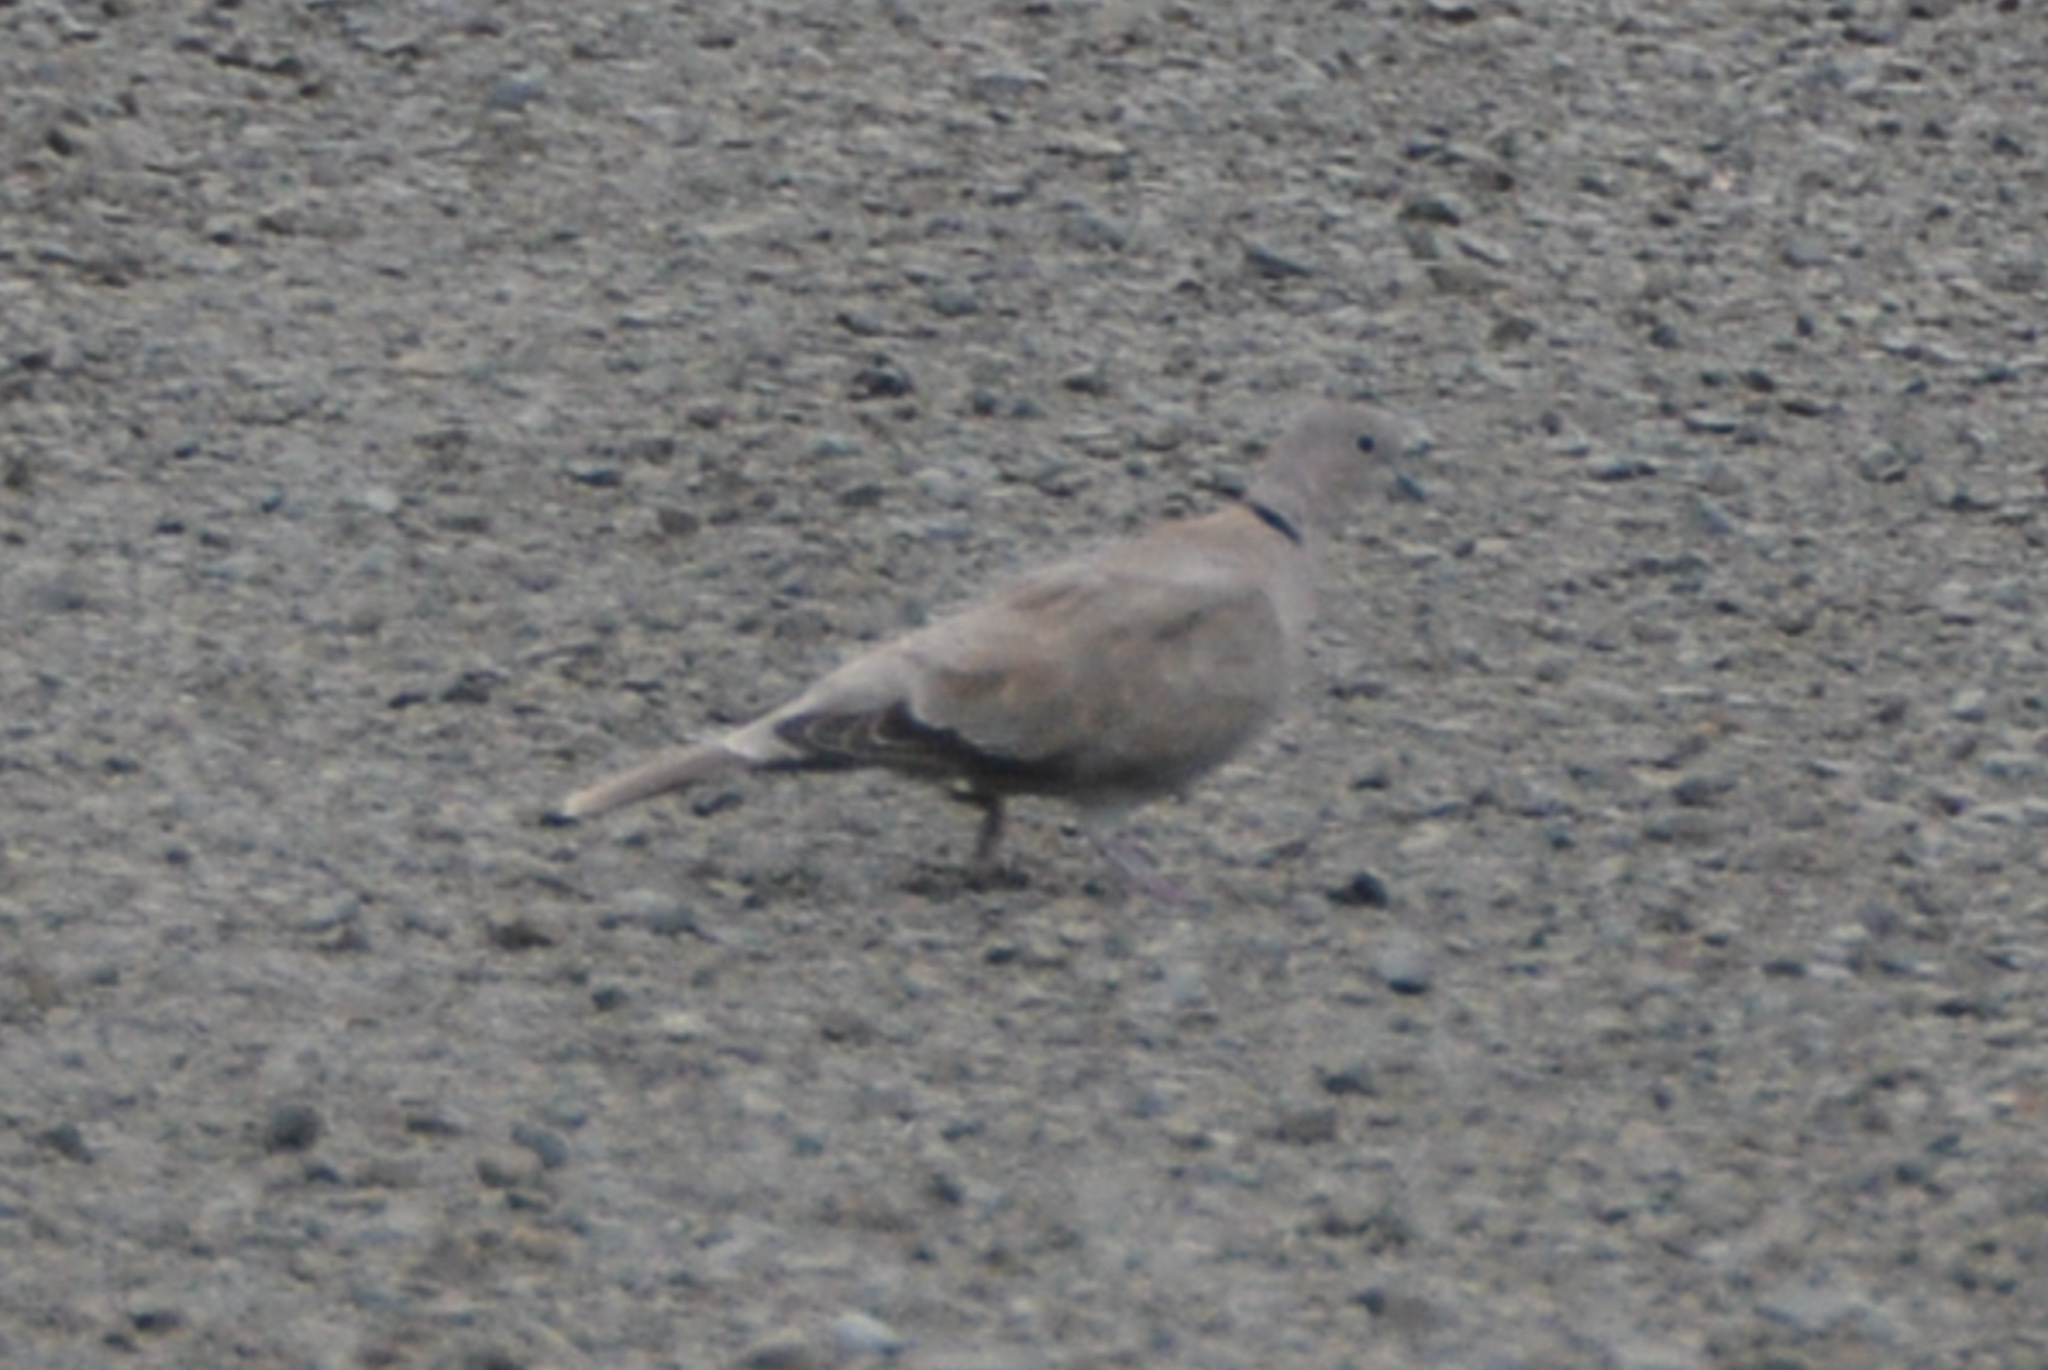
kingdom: Animalia
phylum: Chordata
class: Aves
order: Columbiformes
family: Columbidae
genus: Streptopelia
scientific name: Streptopelia decaocto
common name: Eurasian collared dove
